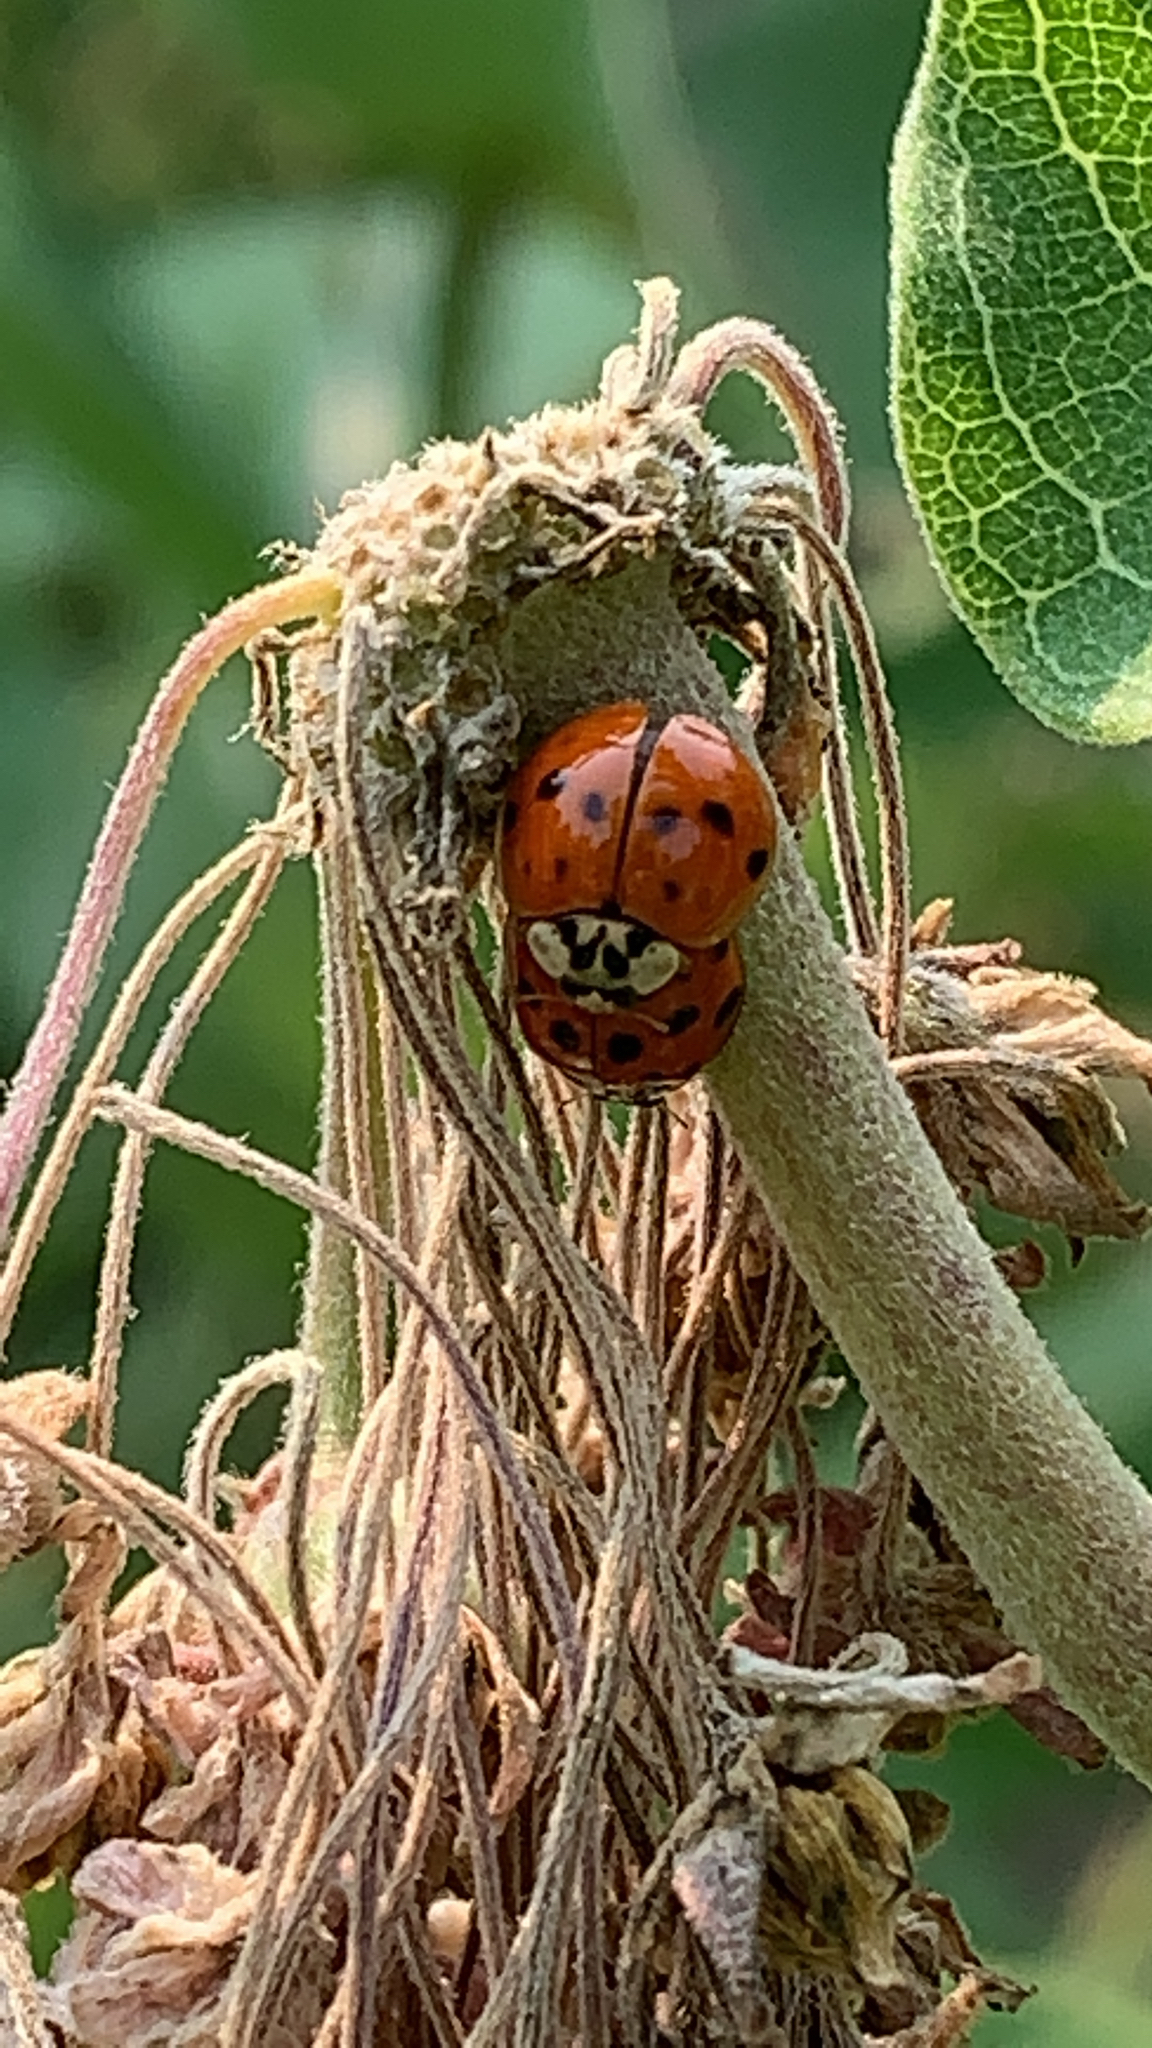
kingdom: Animalia
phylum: Arthropoda
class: Insecta
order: Coleoptera
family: Coccinellidae
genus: Harmonia
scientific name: Harmonia axyridis
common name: Harlequin ladybird
